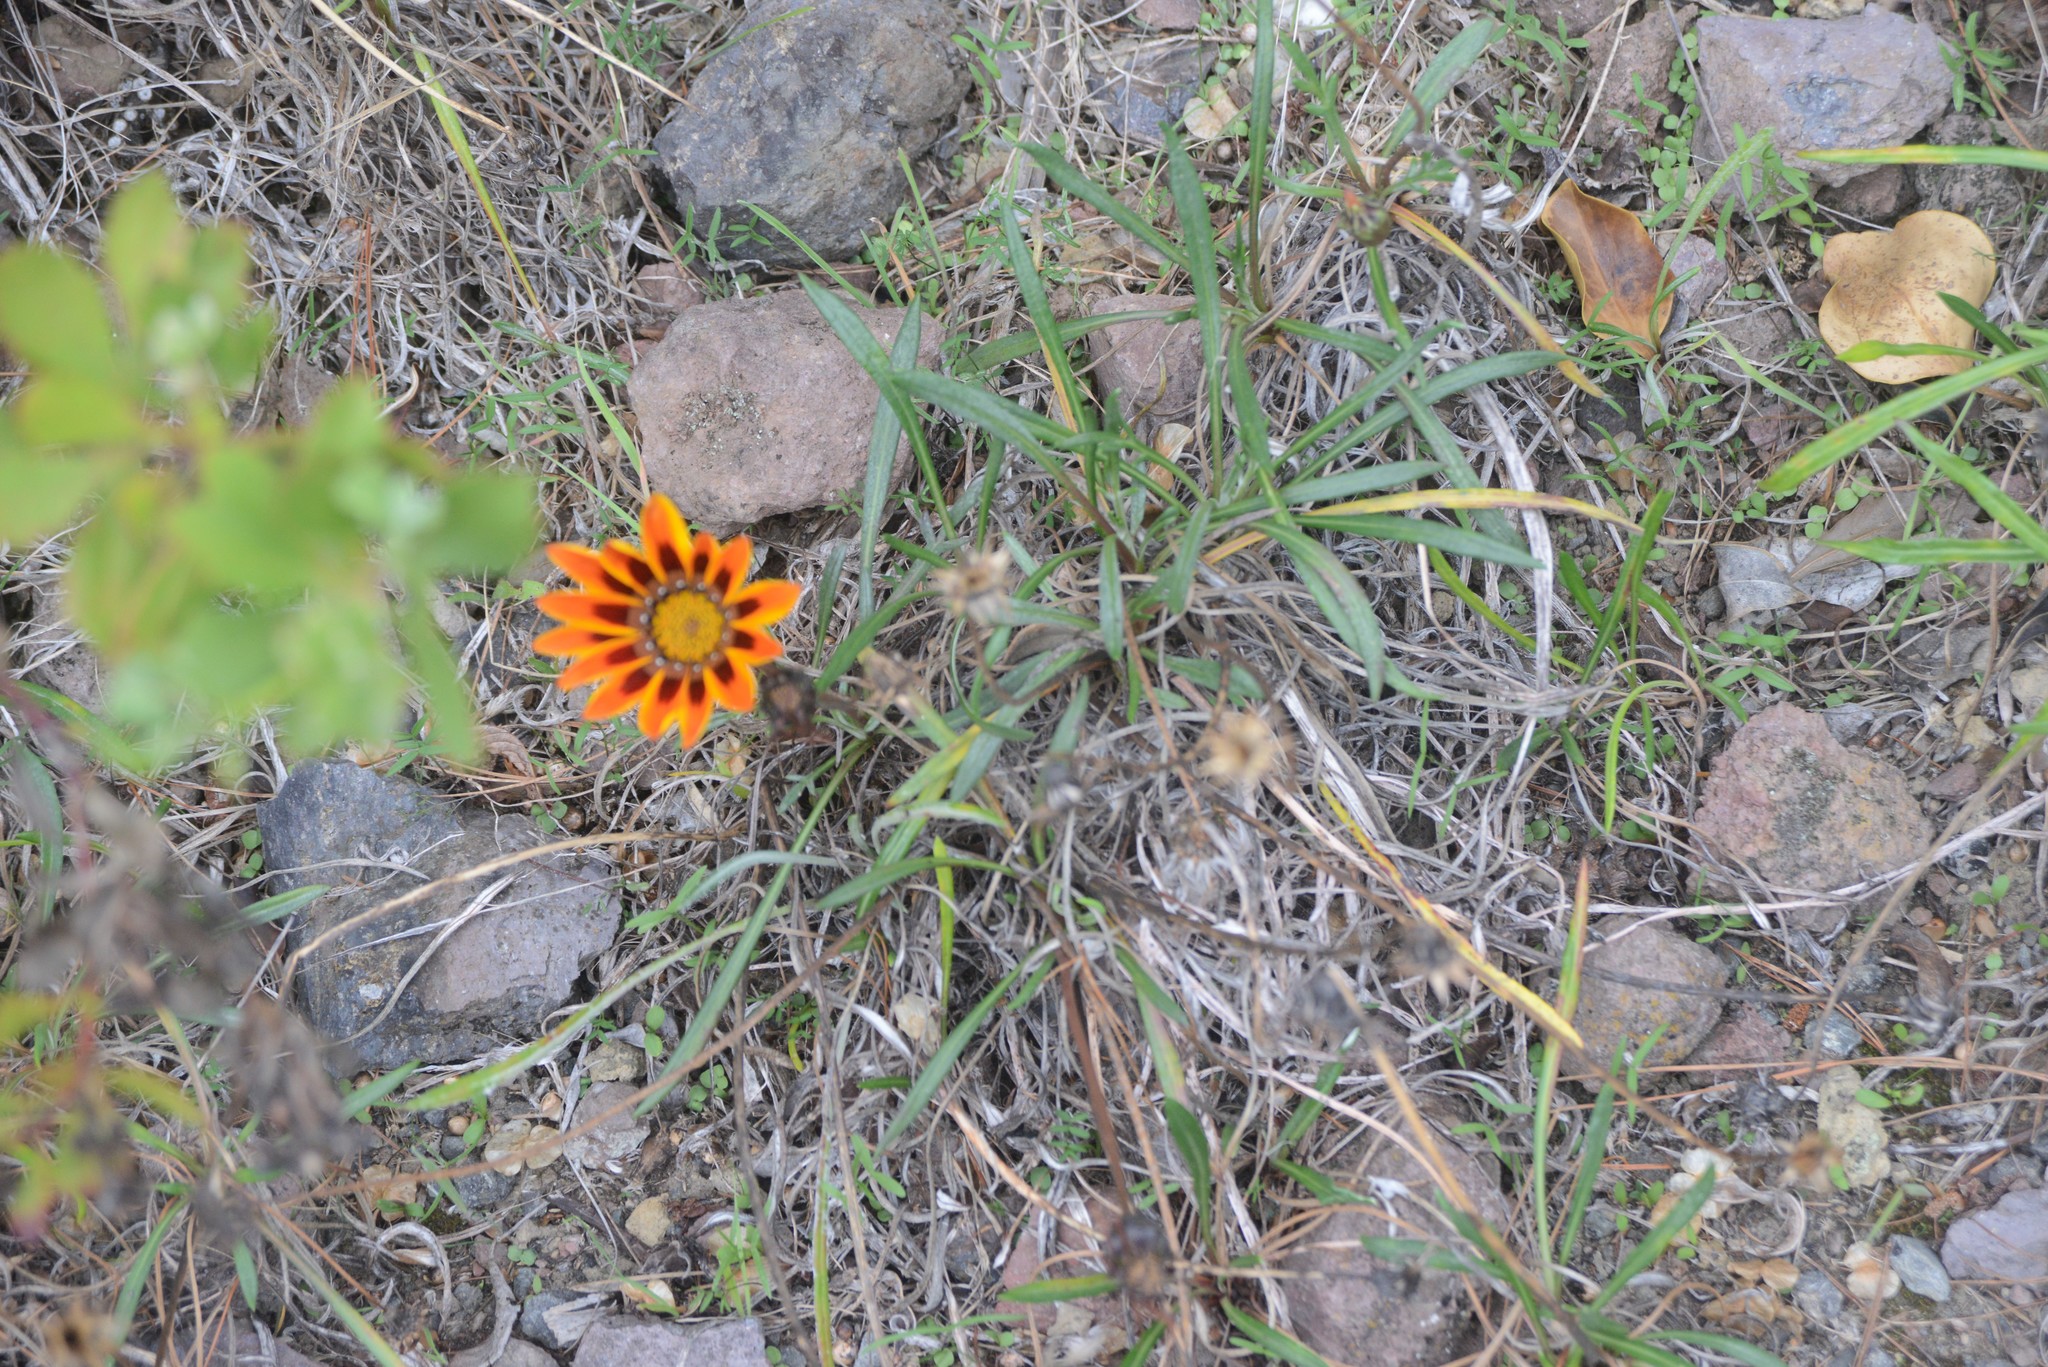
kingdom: Plantae
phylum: Tracheophyta
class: Magnoliopsida
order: Asterales
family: Asteraceae
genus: Gazania
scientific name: Gazania splendens
